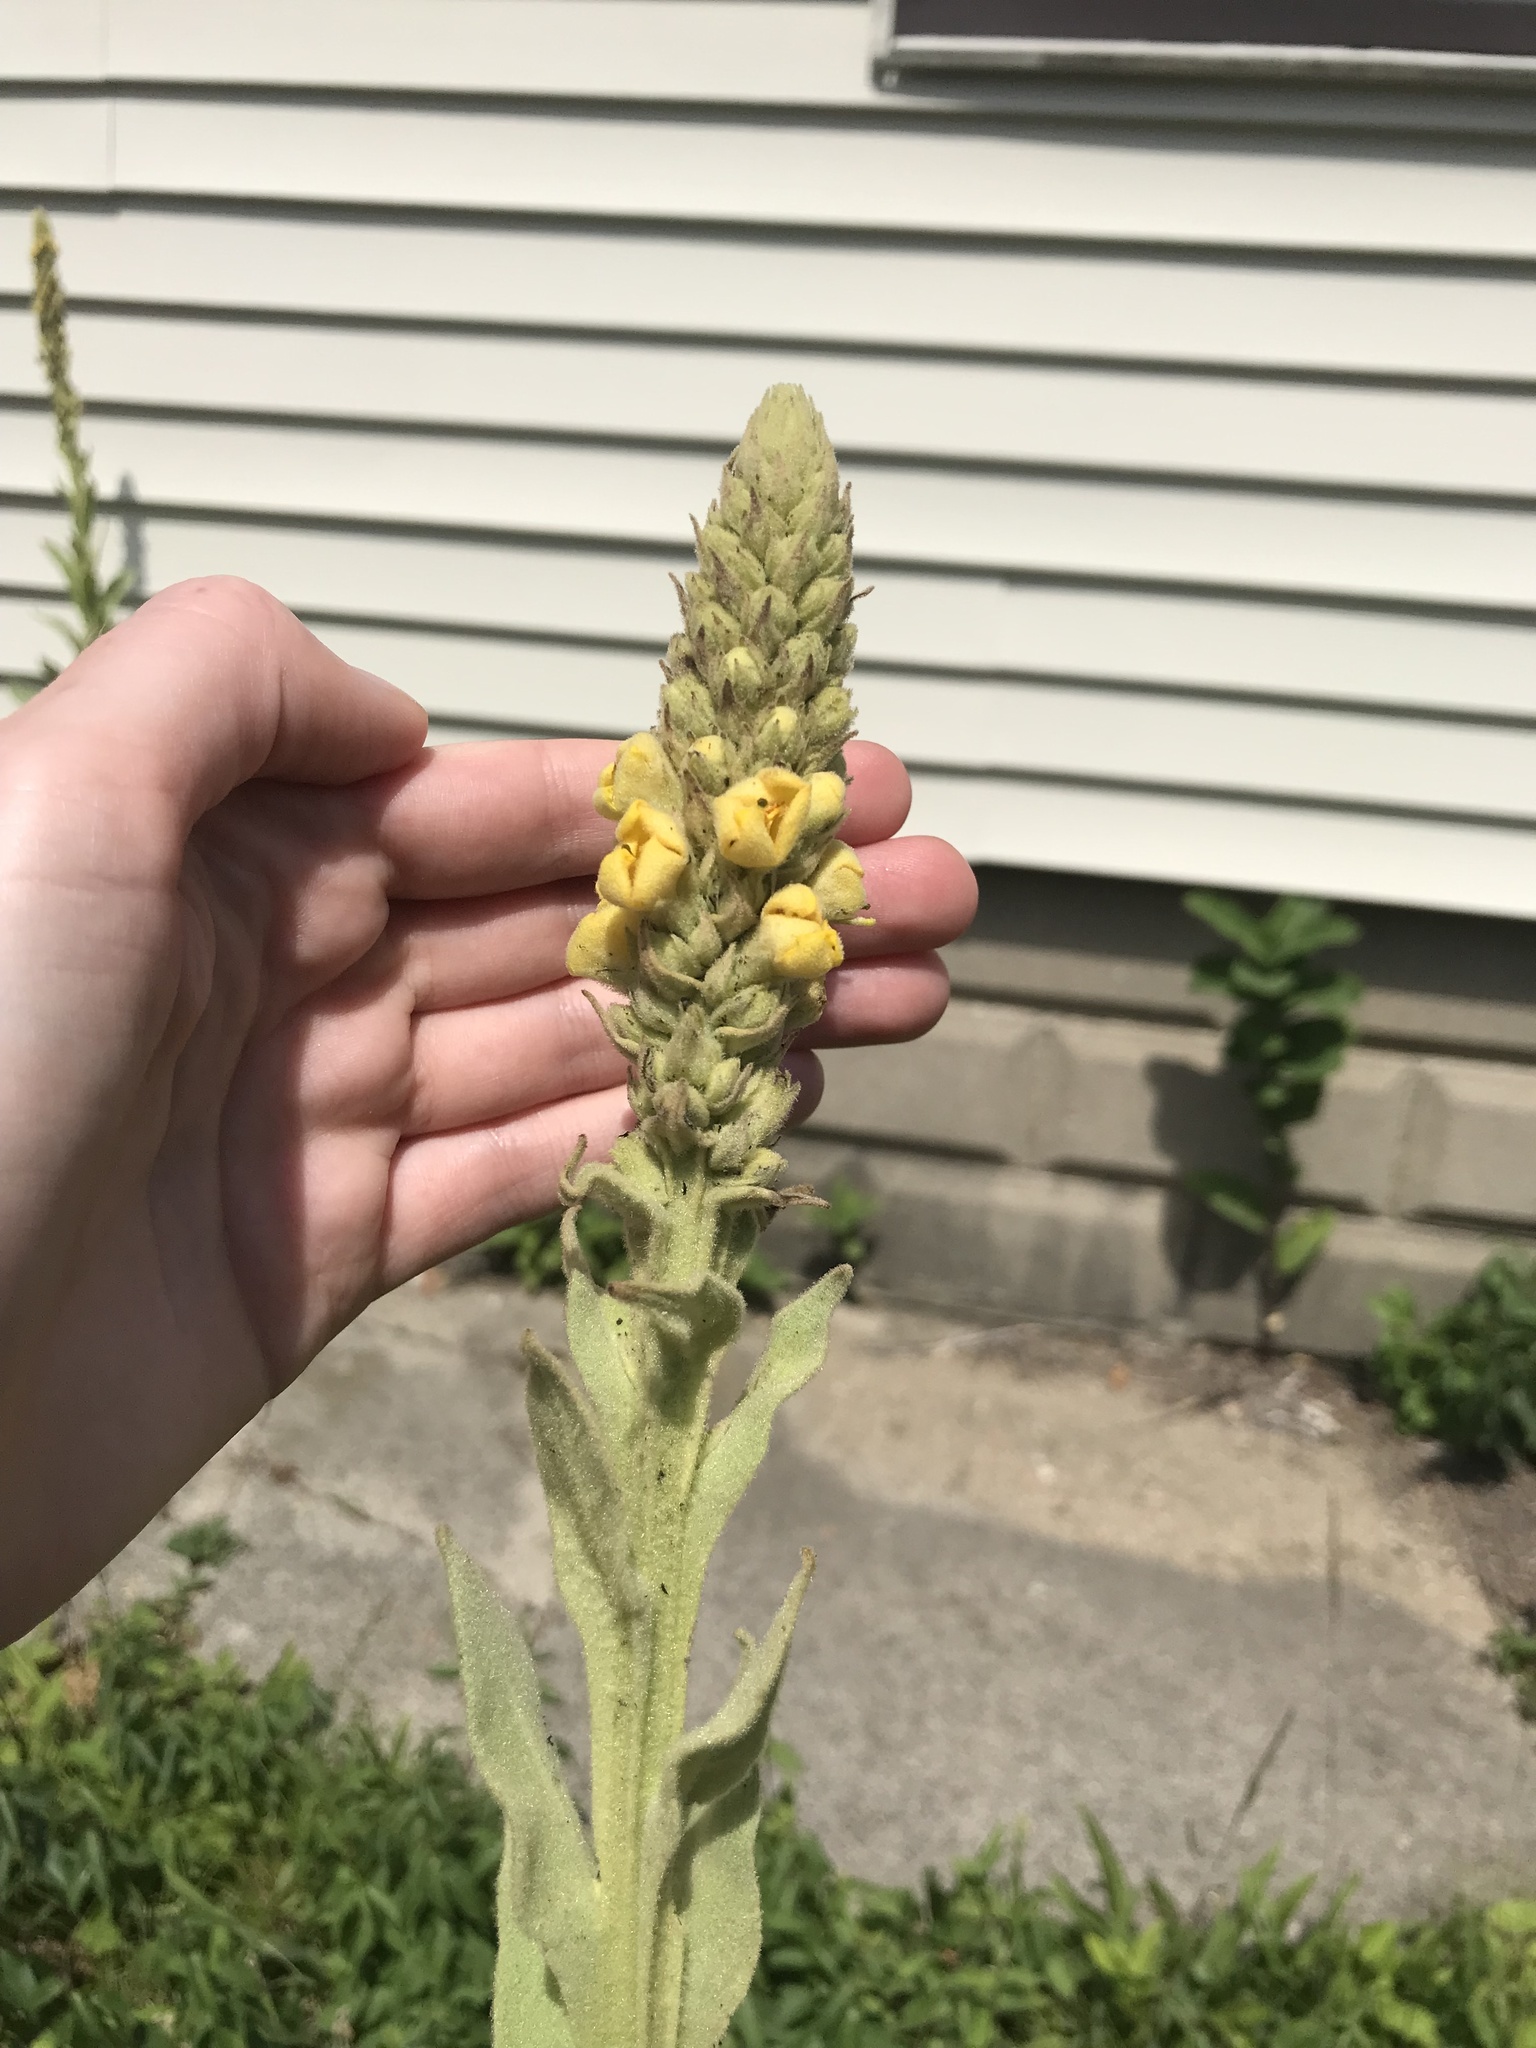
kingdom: Plantae
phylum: Tracheophyta
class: Magnoliopsida
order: Lamiales
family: Scrophulariaceae
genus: Verbascum
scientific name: Verbascum thapsus
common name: Common mullein
